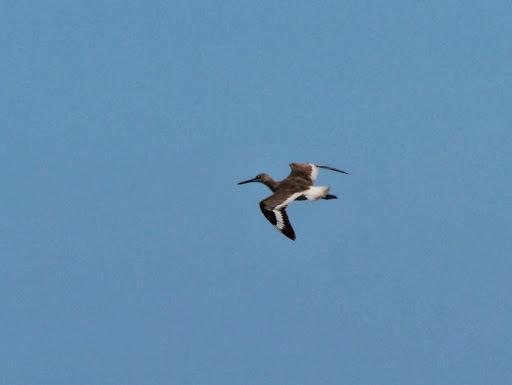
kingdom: Animalia
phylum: Chordata
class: Aves
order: Charadriiformes
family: Scolopacidae
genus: Tringa
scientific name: Tringa semipalmata
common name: Willet
